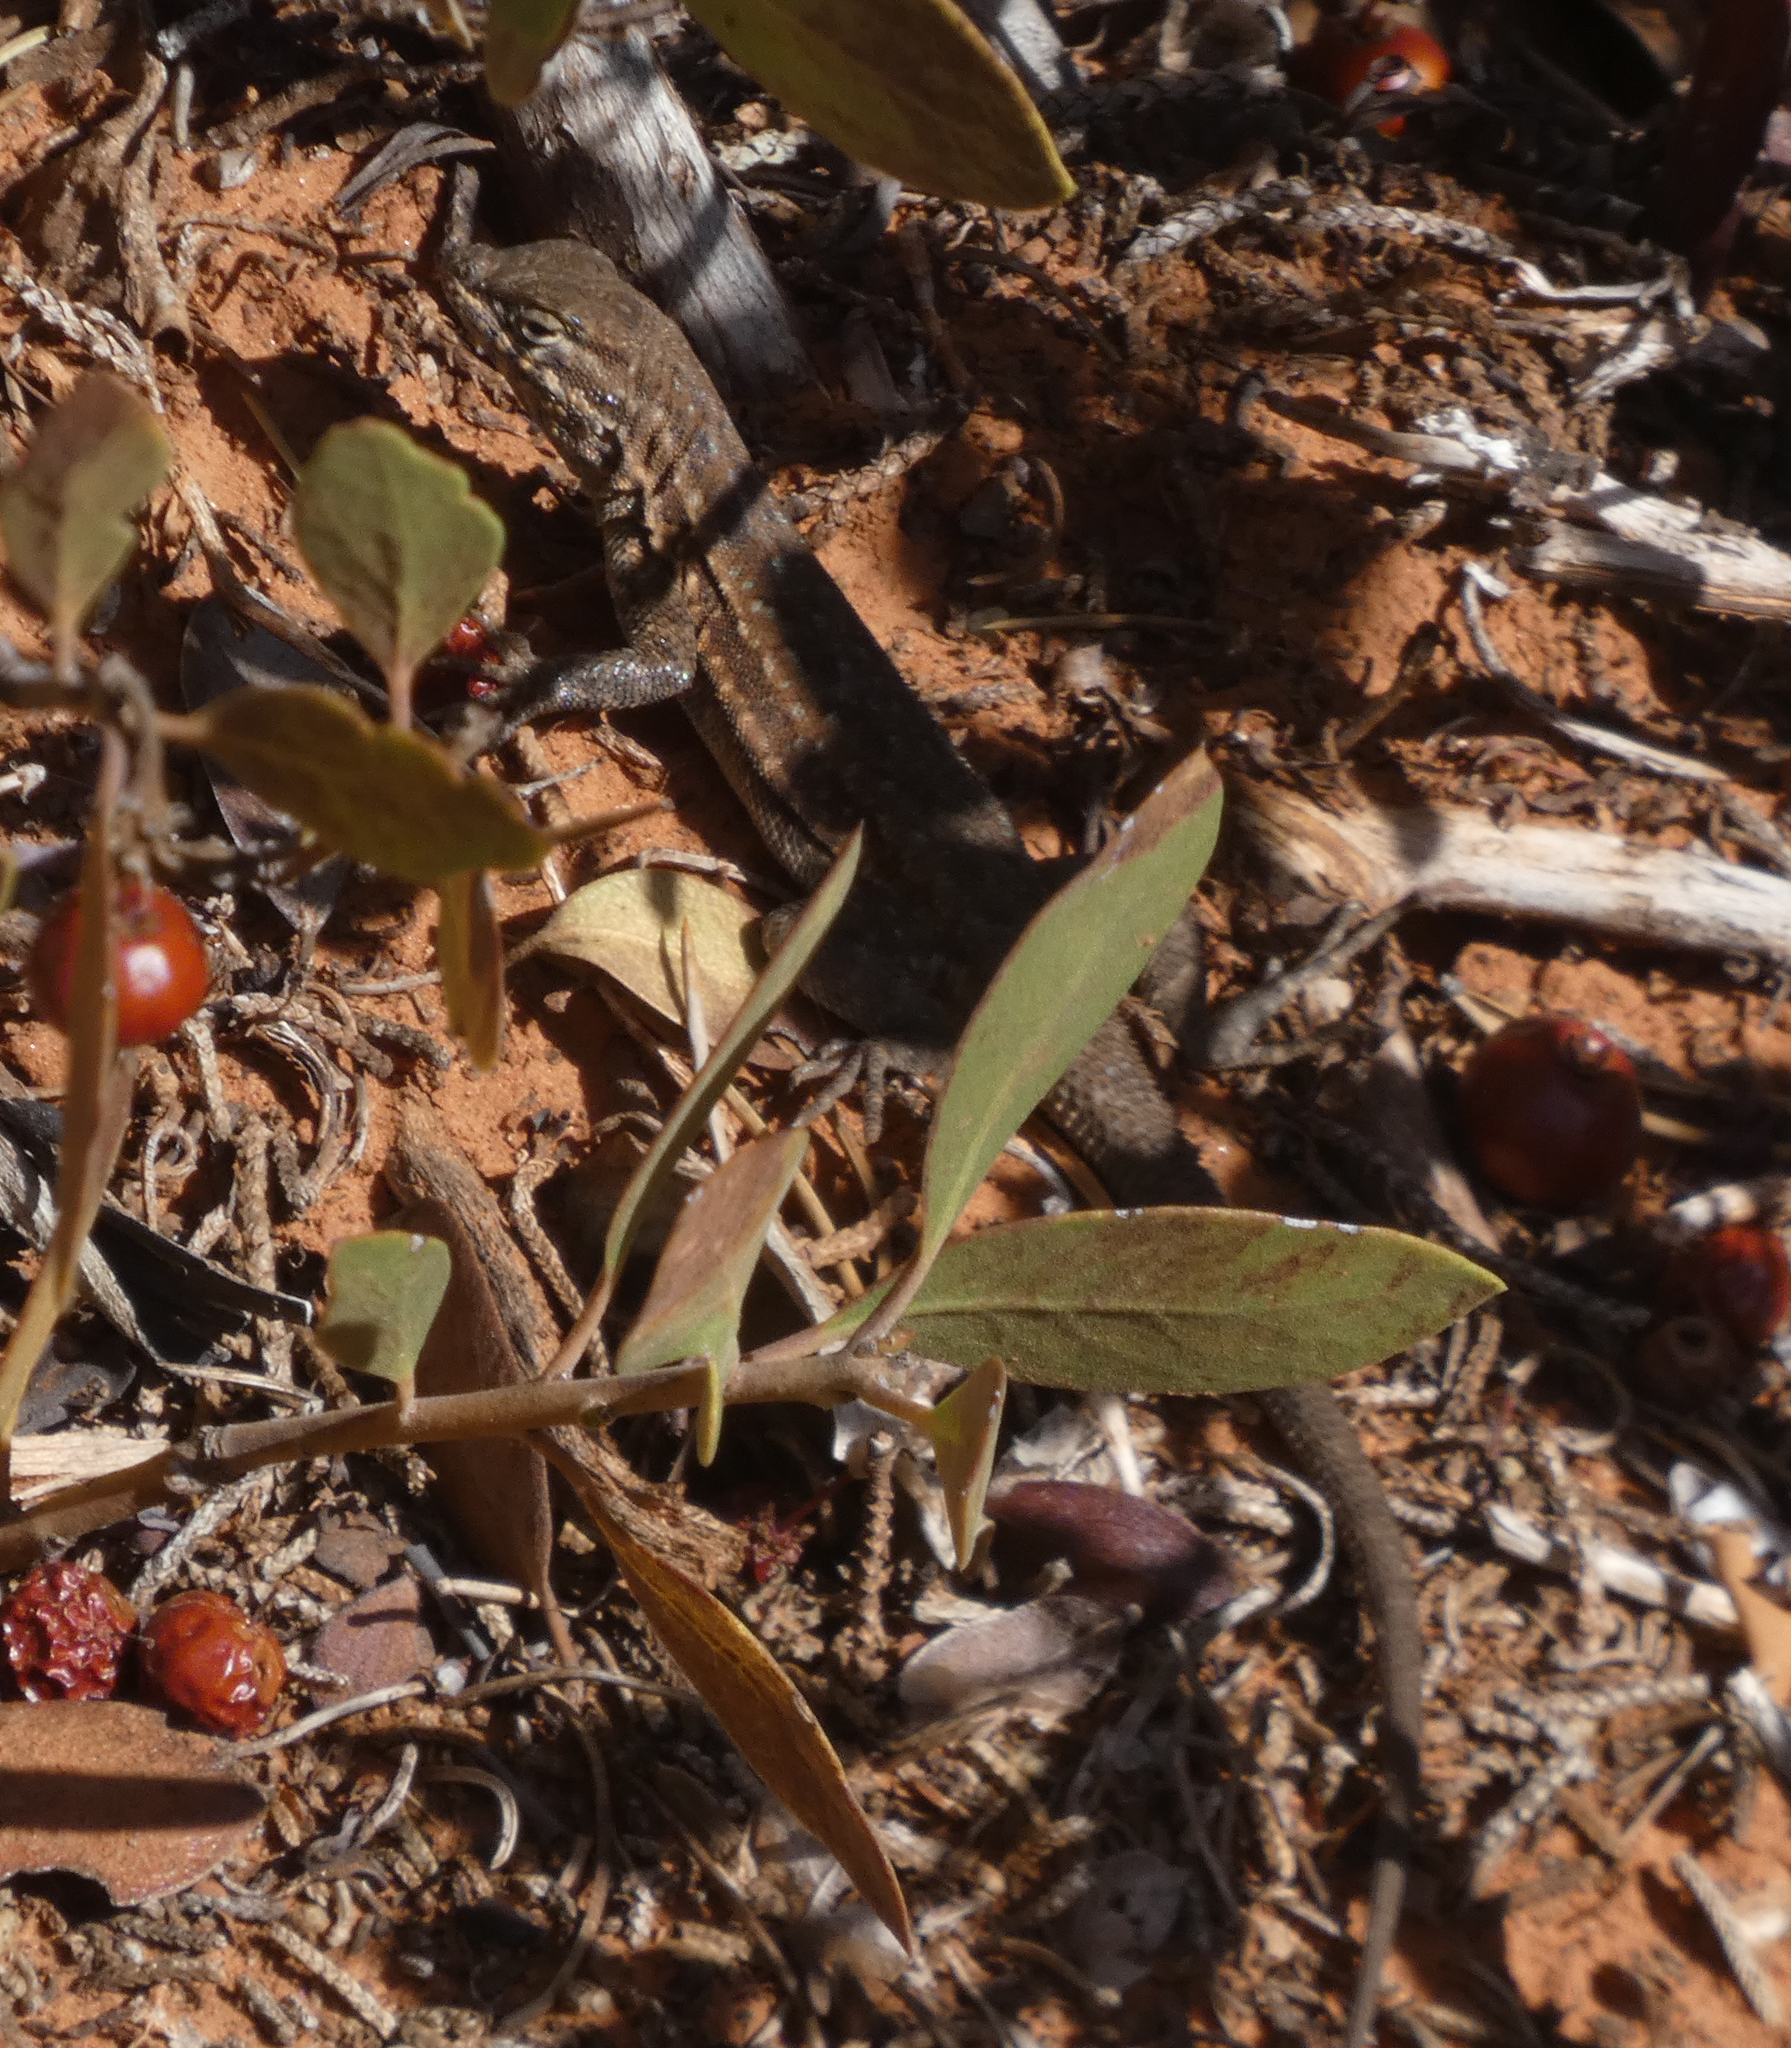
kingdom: Animalia
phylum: Chordata
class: Squamata
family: Phrynosomatidae
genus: Uta
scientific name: Uta stansburiana
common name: Side-blotched lizard
